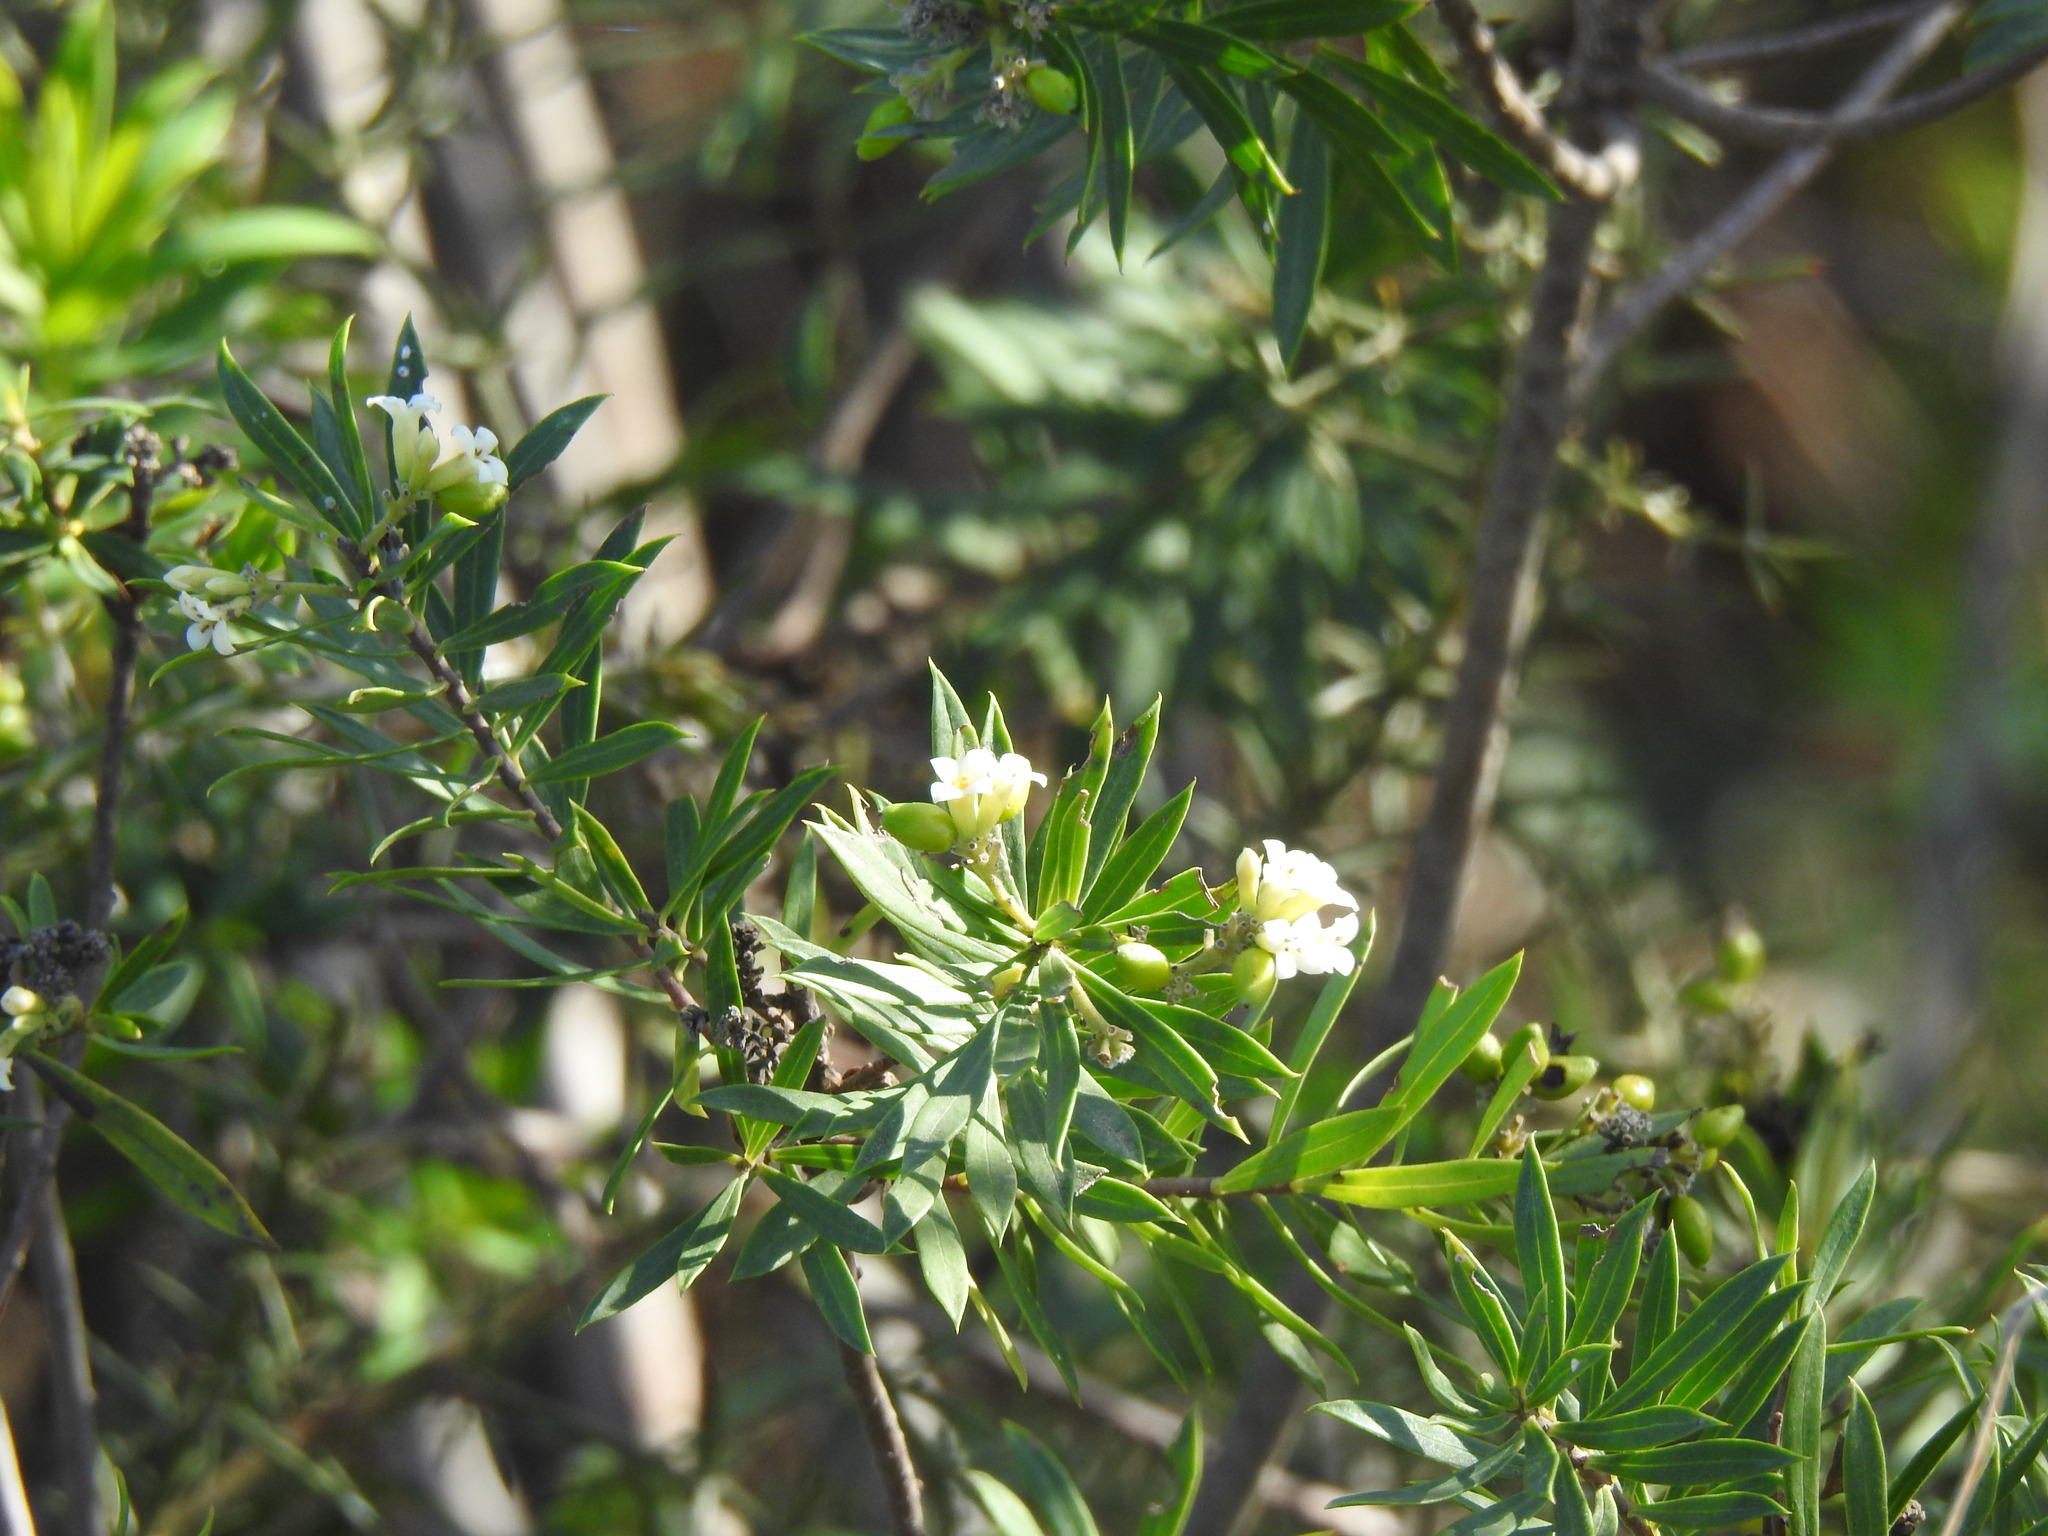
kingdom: Plantae
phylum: Tracheophyta
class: Magnoliopsida
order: Malvales
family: Thymelaeaceae
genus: Daphne
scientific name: Daphne gnidium
